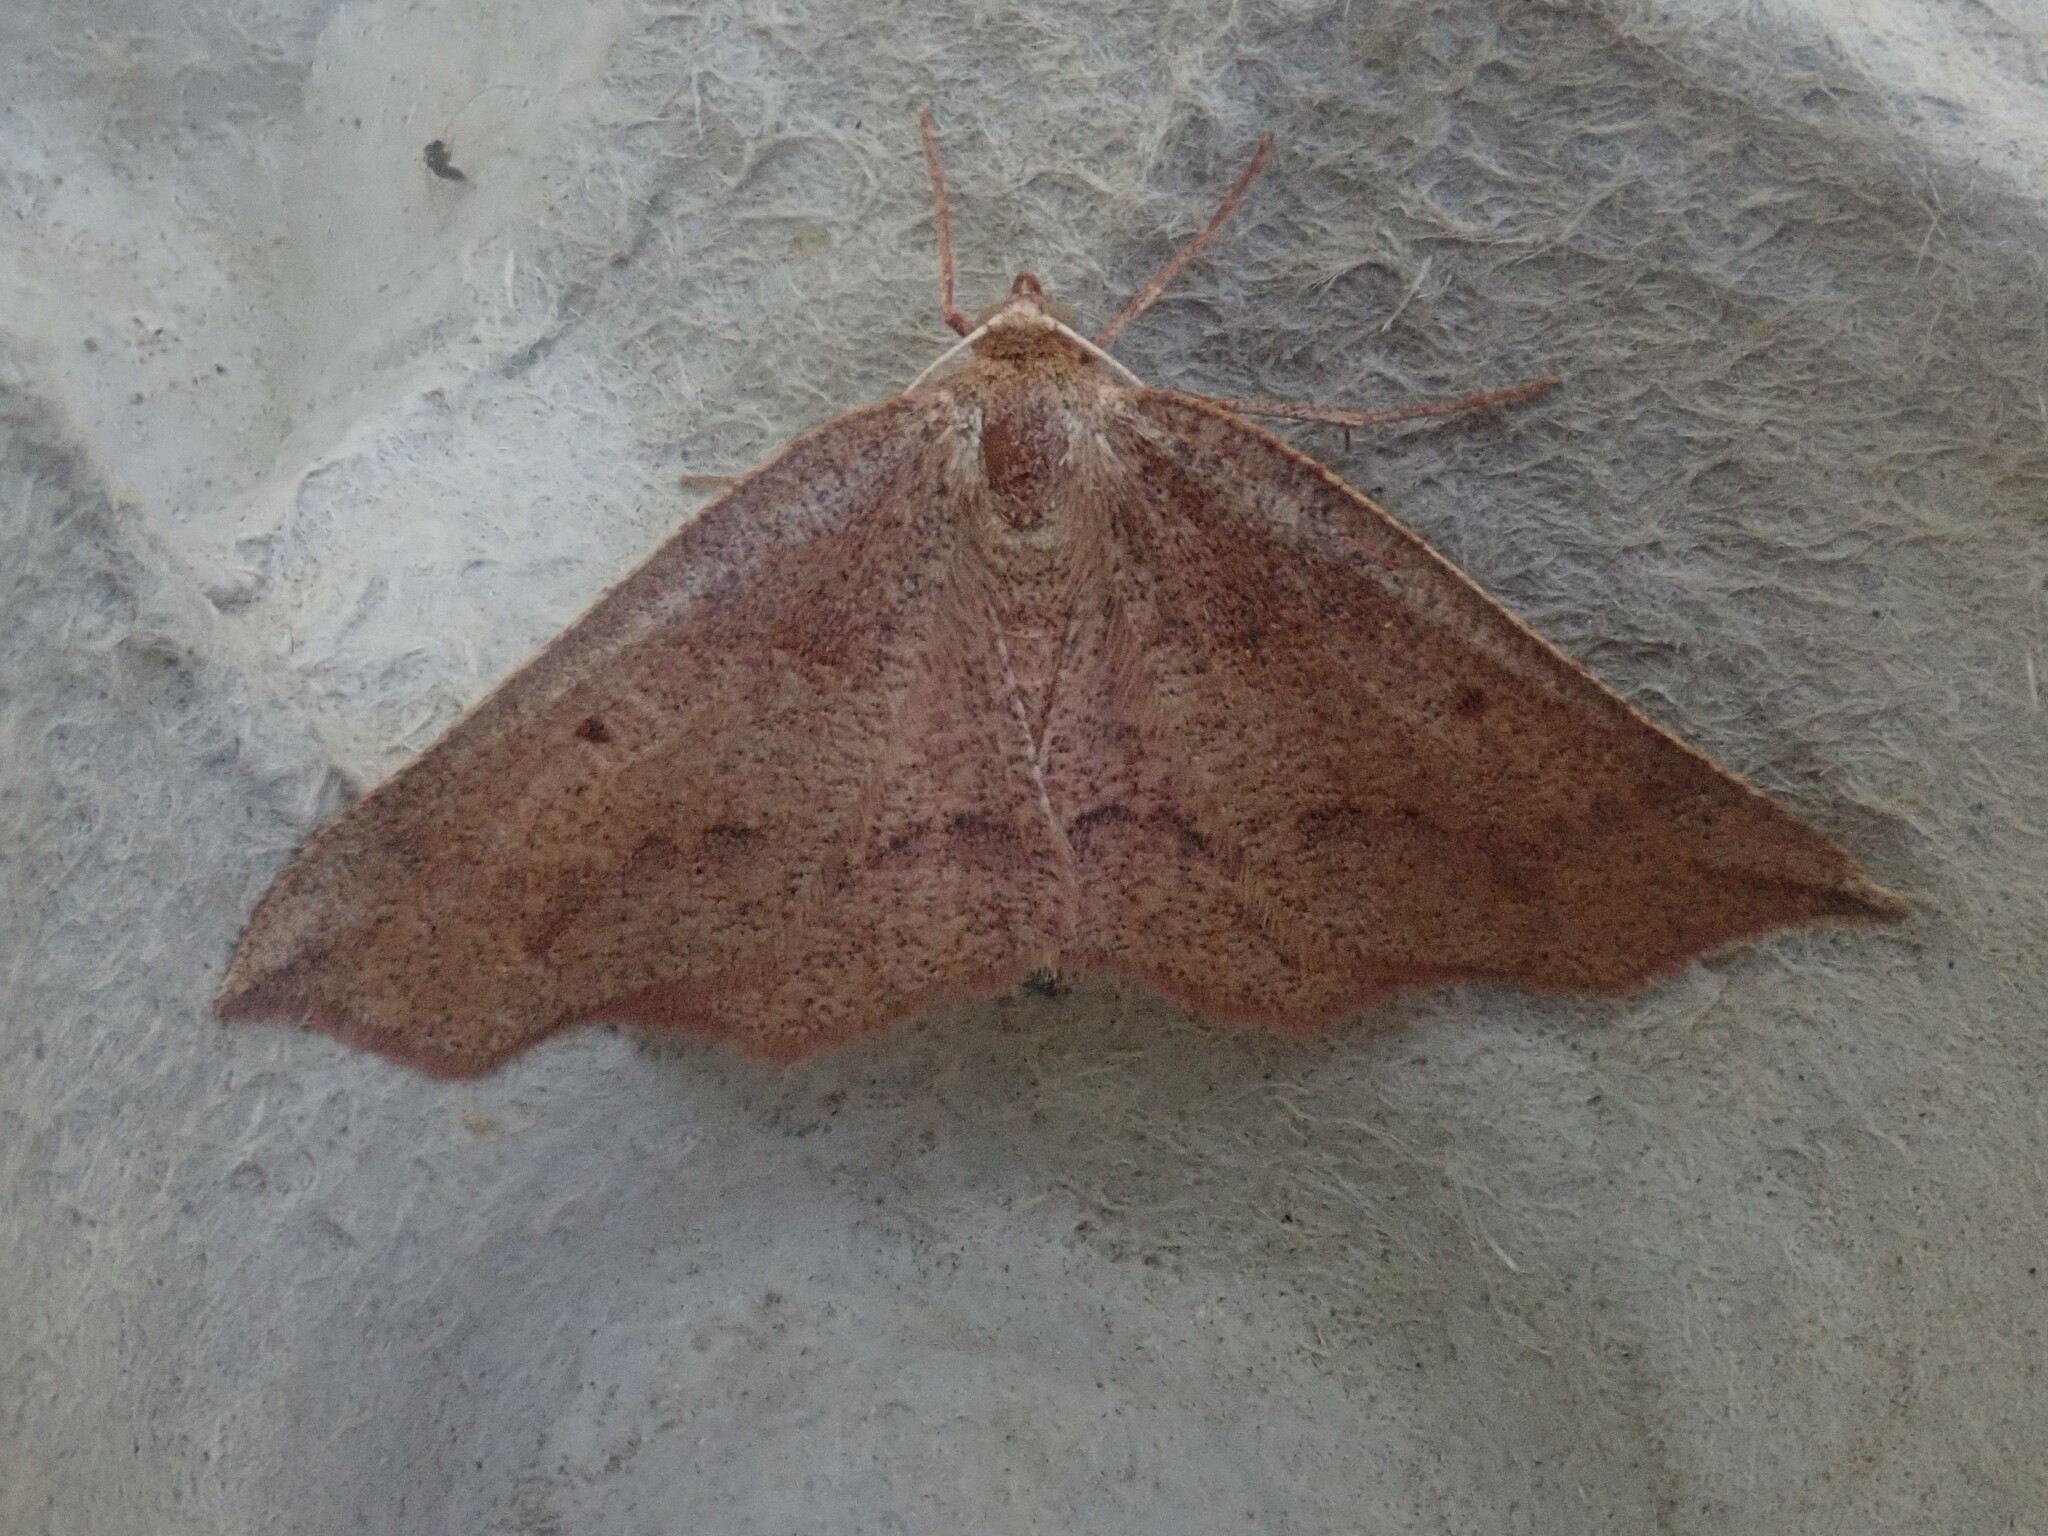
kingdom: Animalia
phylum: Arthropoda
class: Insecta
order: Lepidoptera
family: Geometridae
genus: Metarranthis
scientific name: Metarranthis duaria
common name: Ruddy metarranthis moth
